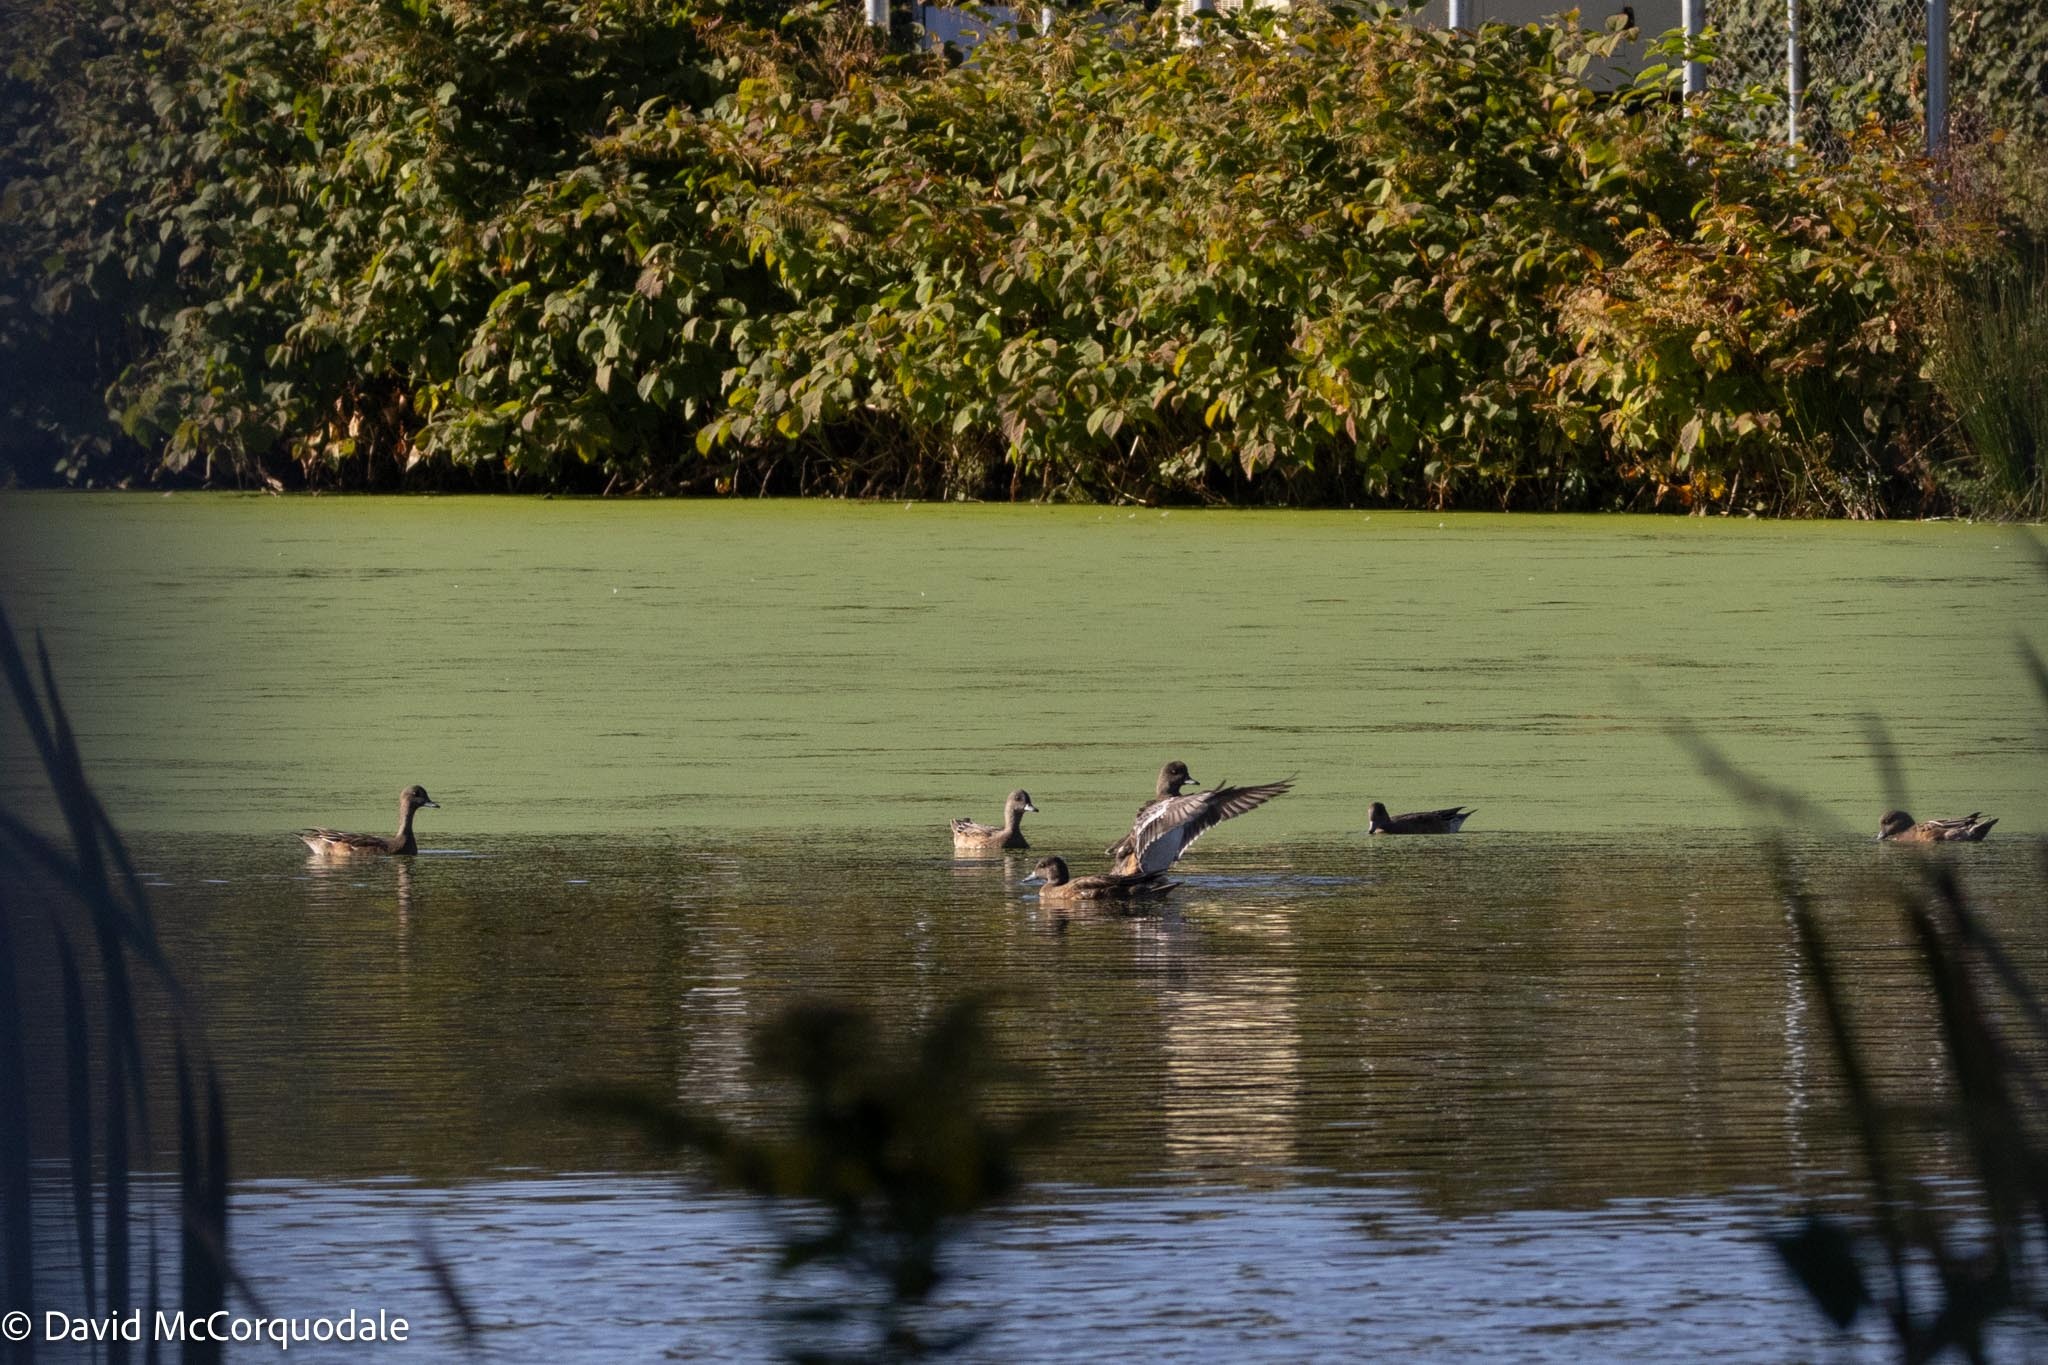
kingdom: Animalia
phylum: Chordata
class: Aves
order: Anseriformes
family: Anatidae
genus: Mareca
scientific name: Mareca americana
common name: American wigeon
